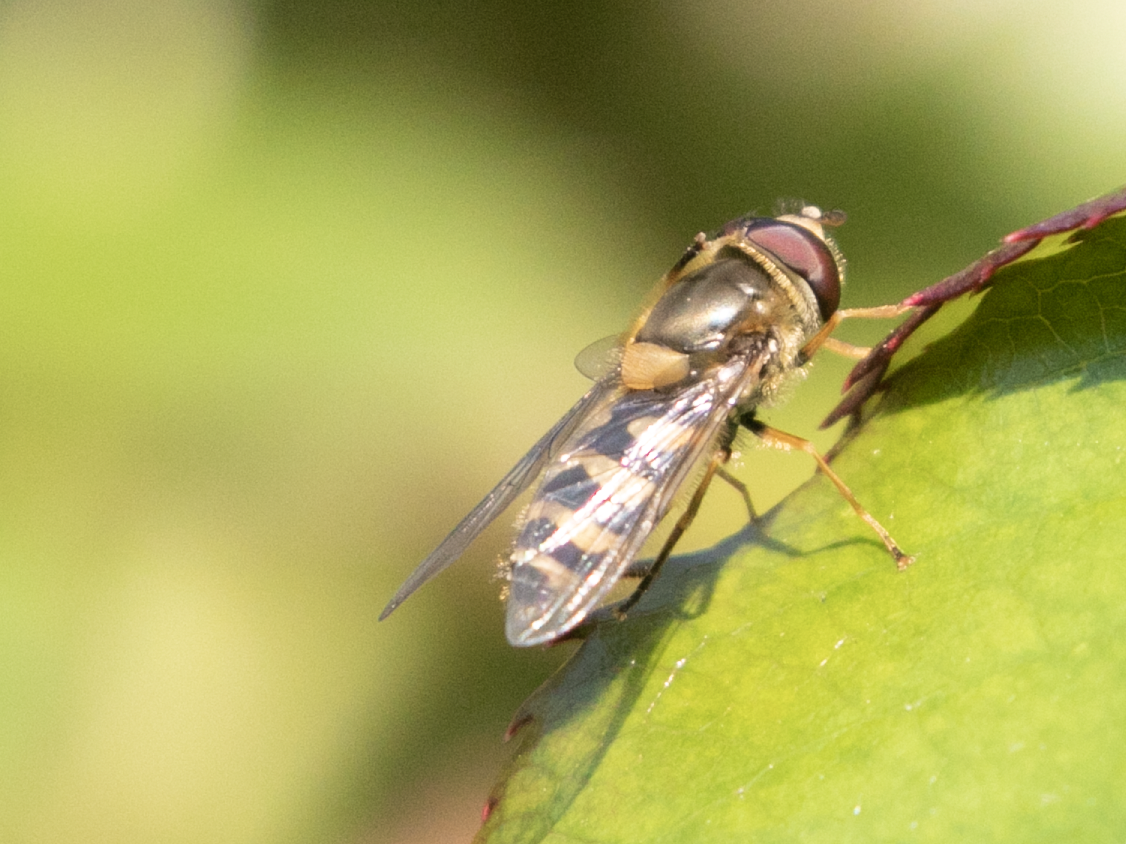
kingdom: Animalia
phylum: Arthropoda
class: Insecta
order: Diptera
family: Syrphidae
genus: Syrphus
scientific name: Syrphus
